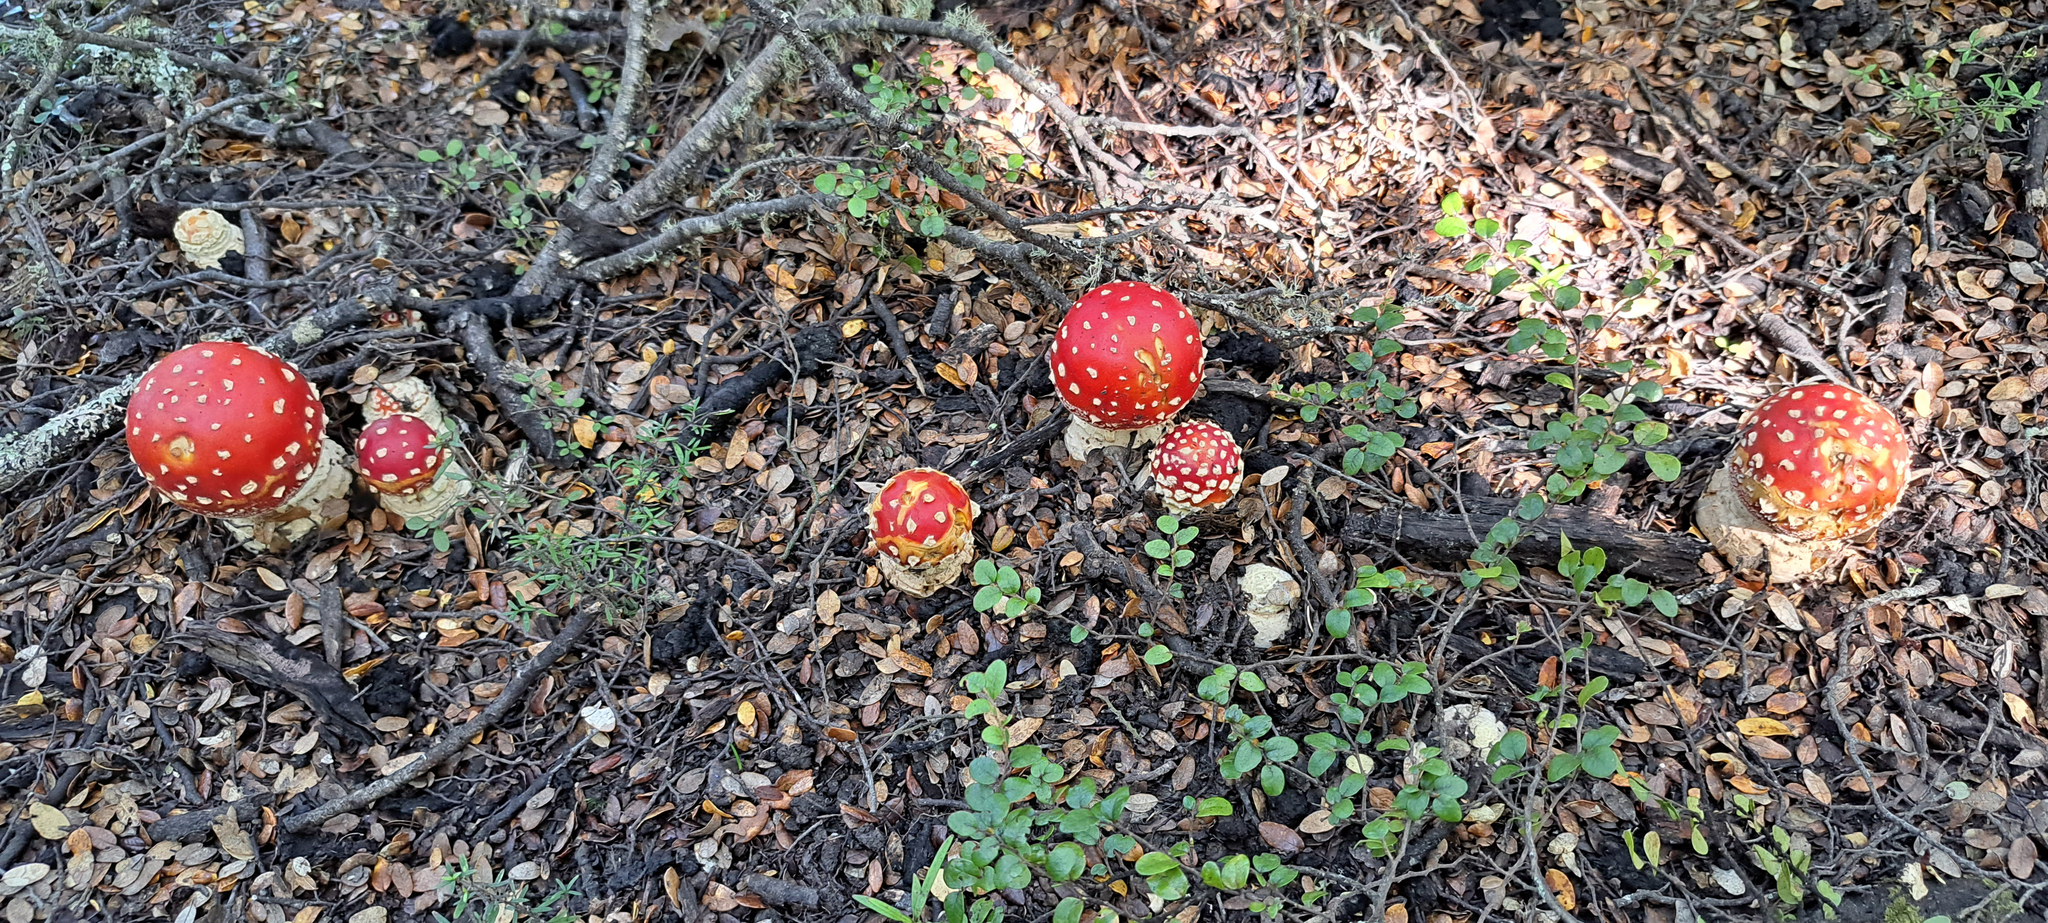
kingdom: Fungi
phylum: Basidiomycota
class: Agaricomycetes
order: Agaricales
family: Amanitaceae
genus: Amanita
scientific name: Amanita muscaria
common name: Fly agaric
